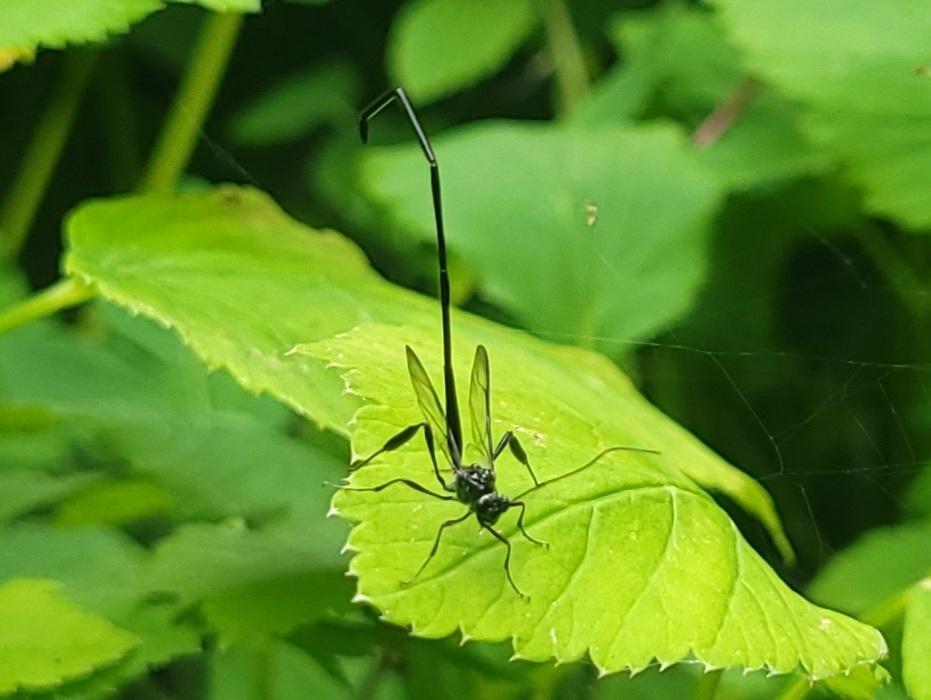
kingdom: Animalia
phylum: Arthropoda
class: Insecta
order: Hymenoptera
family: Pelecinidae
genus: Pelecinus
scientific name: Pelecinus polyturator
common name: American pelecinid wasp
